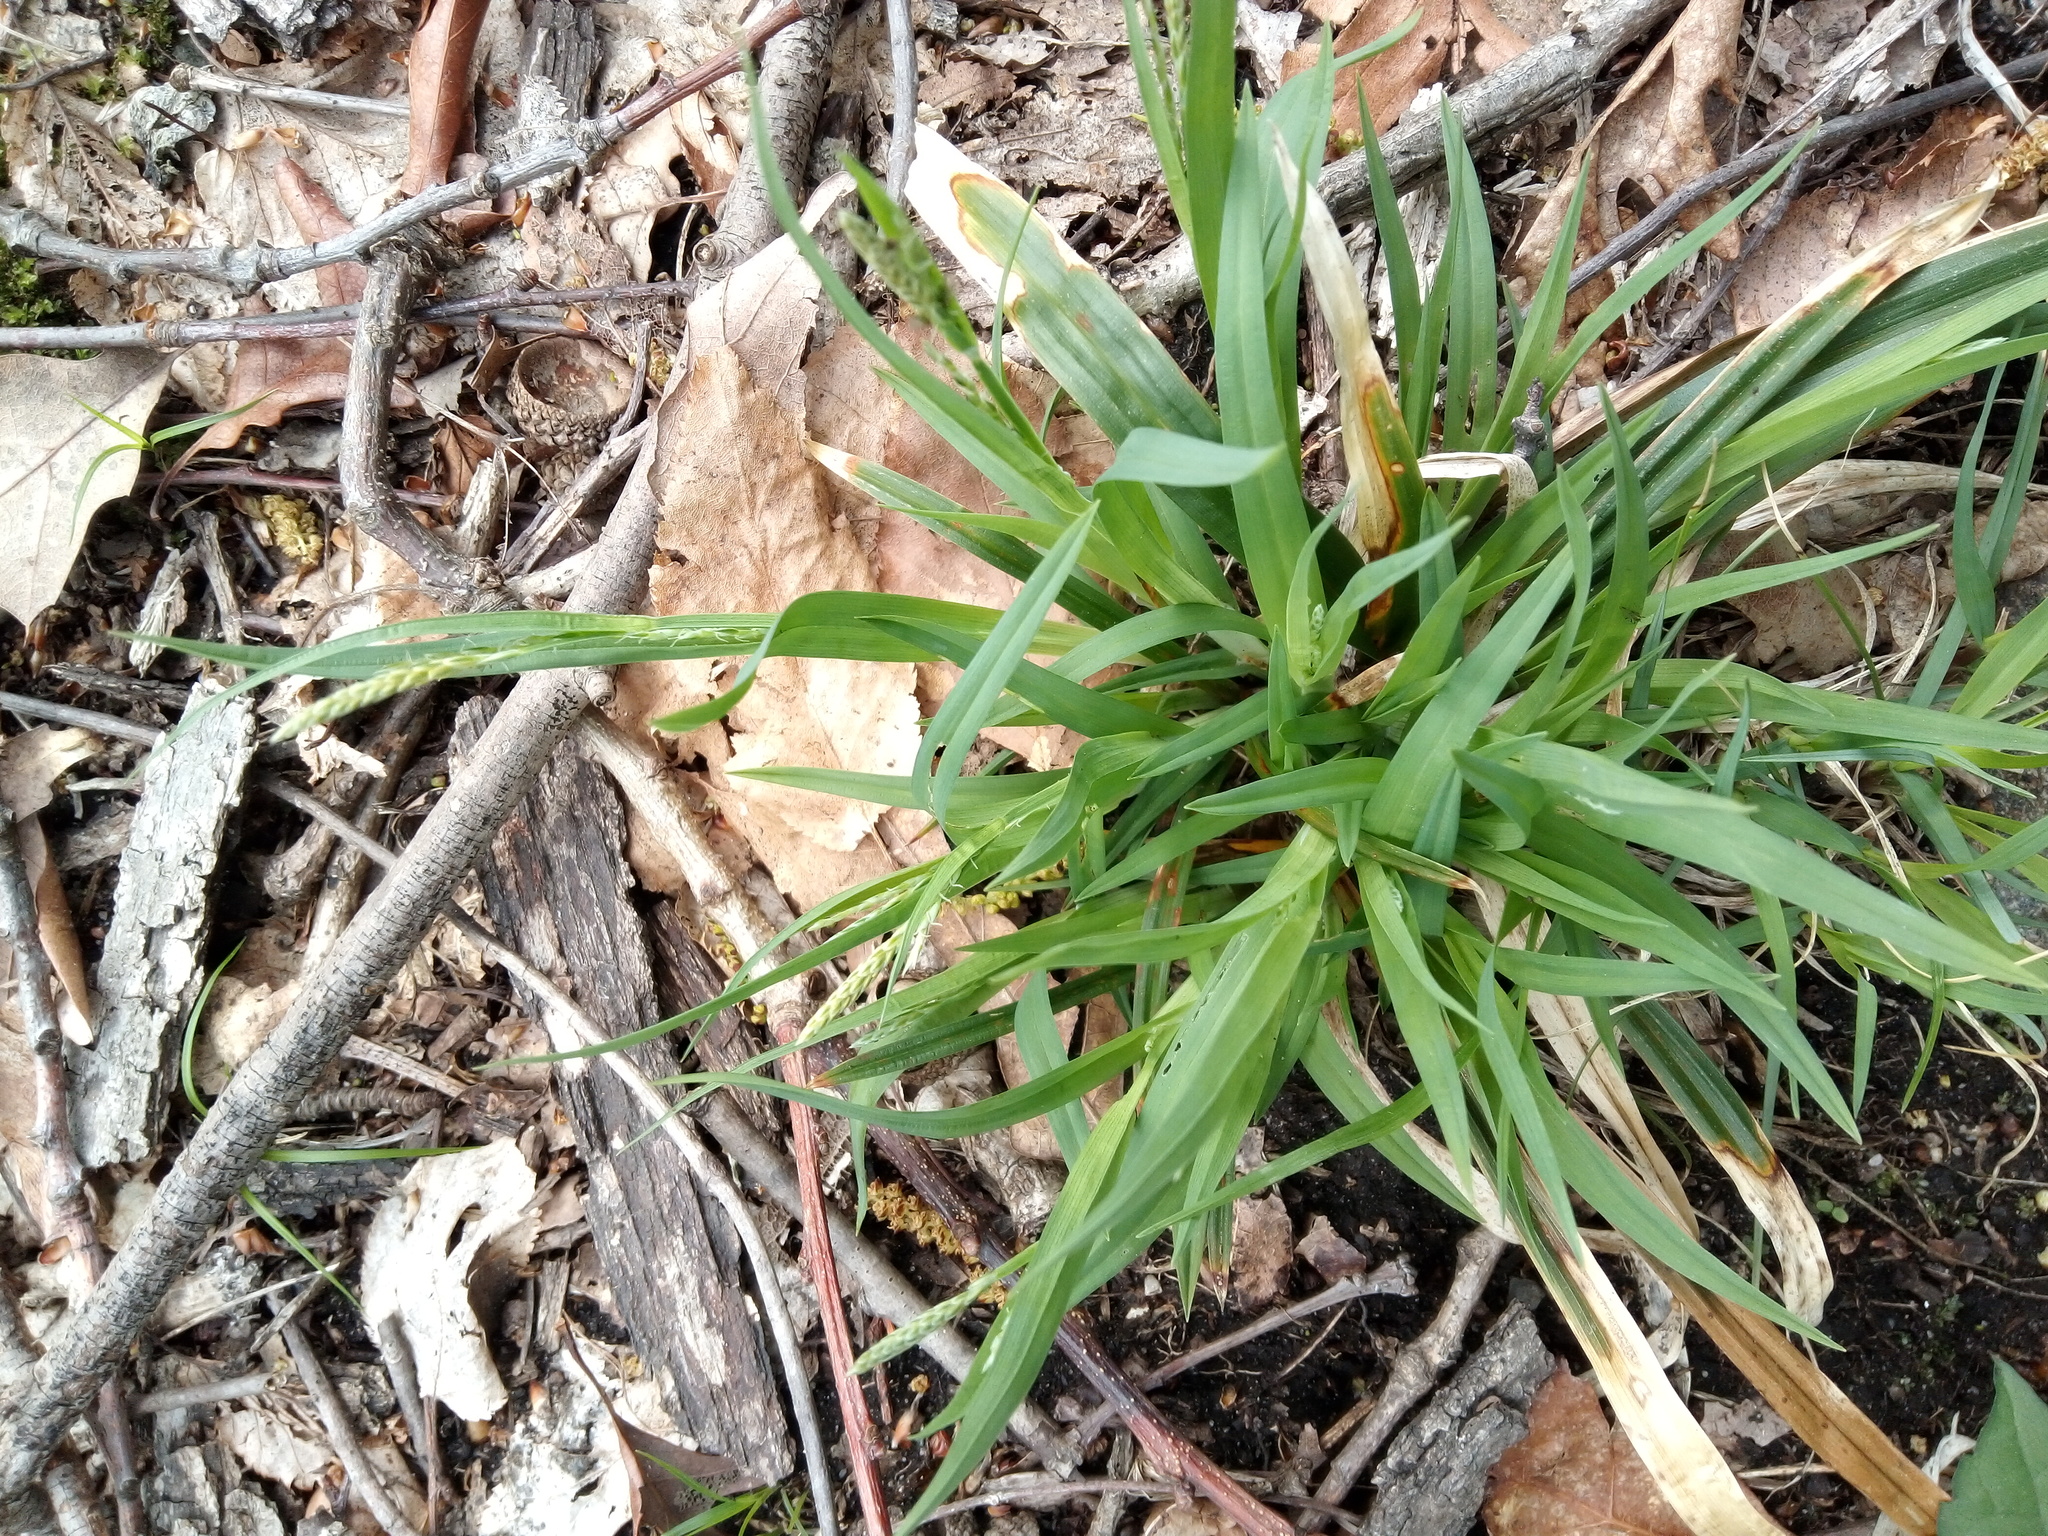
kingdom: Plantae
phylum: Tracheophyta
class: Liliopsida
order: Poales
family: Cyperaceae
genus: Carex
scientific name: Carex laxiflora
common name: Beech wood sedge
